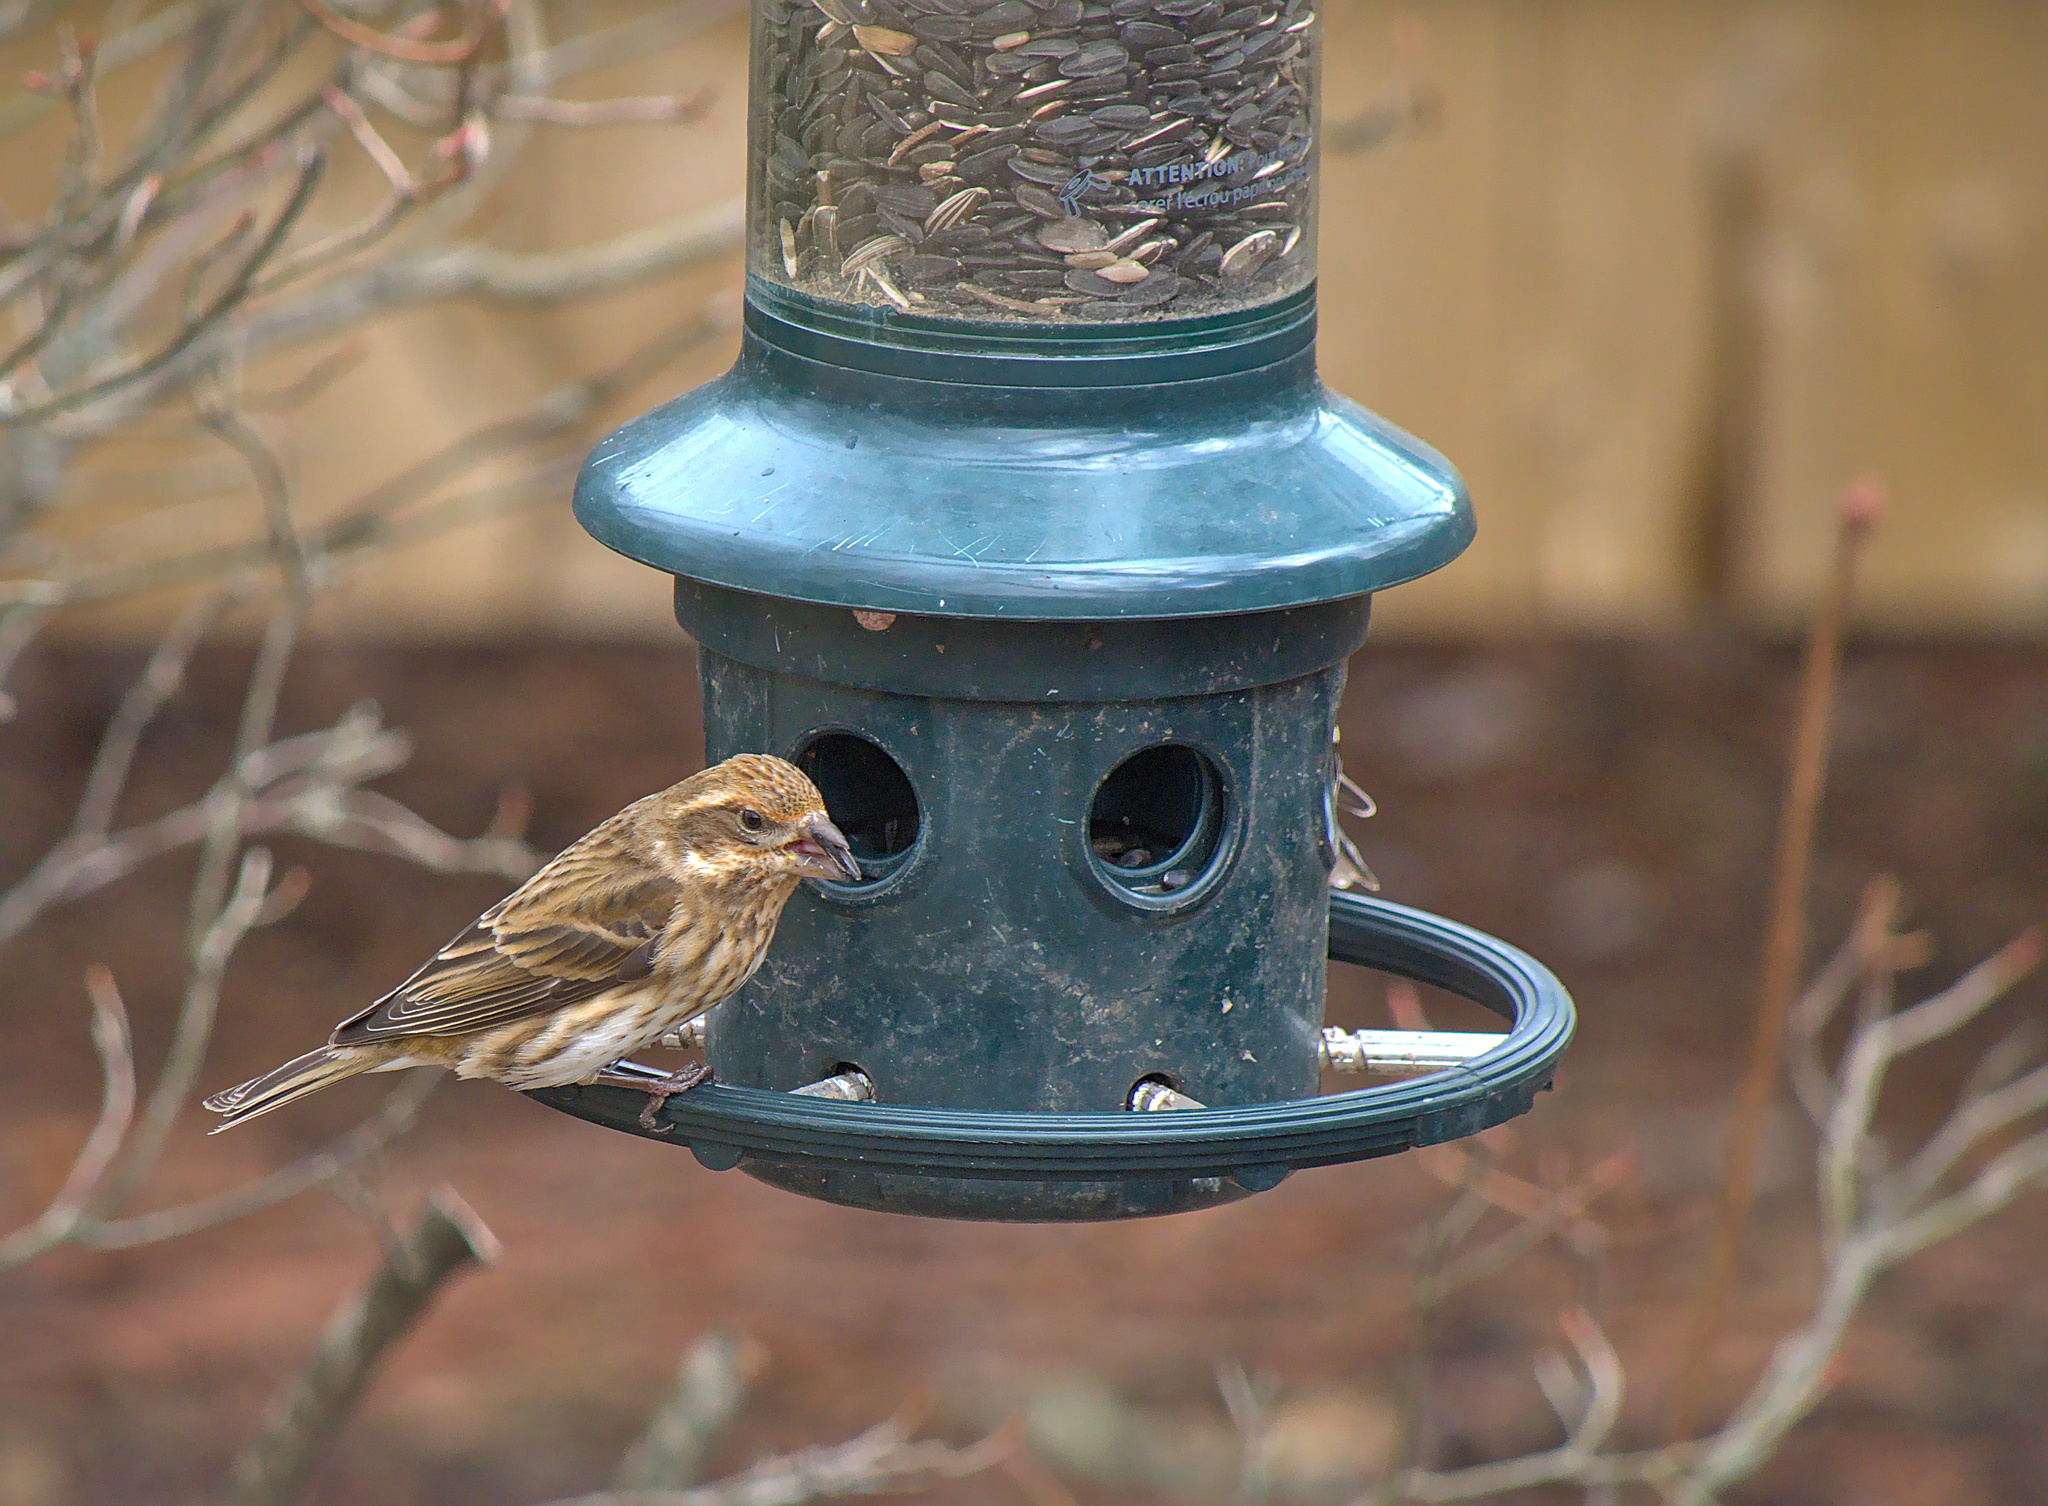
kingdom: Animalia
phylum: Chordata
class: Aves
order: Passeriformes
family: Fringillidae
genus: Haemorhous
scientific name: Haemorhous purpureus
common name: Purple finch
